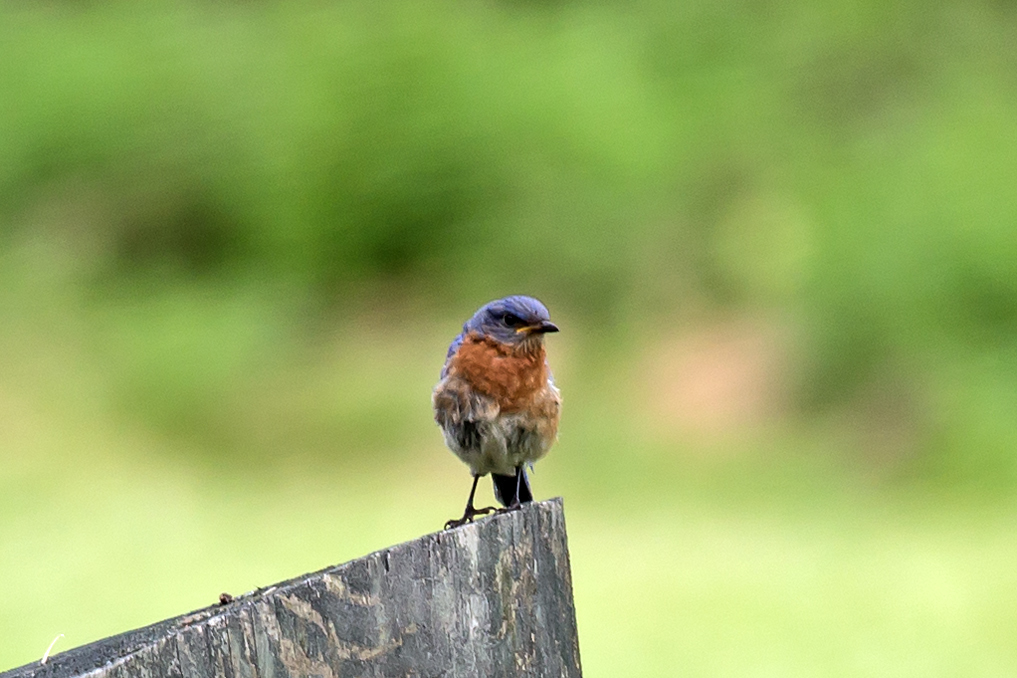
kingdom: Animalia
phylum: Chordata
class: Aves
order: Passeriformes
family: Turdidae
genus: Sialia
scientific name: Sialia sialis
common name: Eastern bluebird
